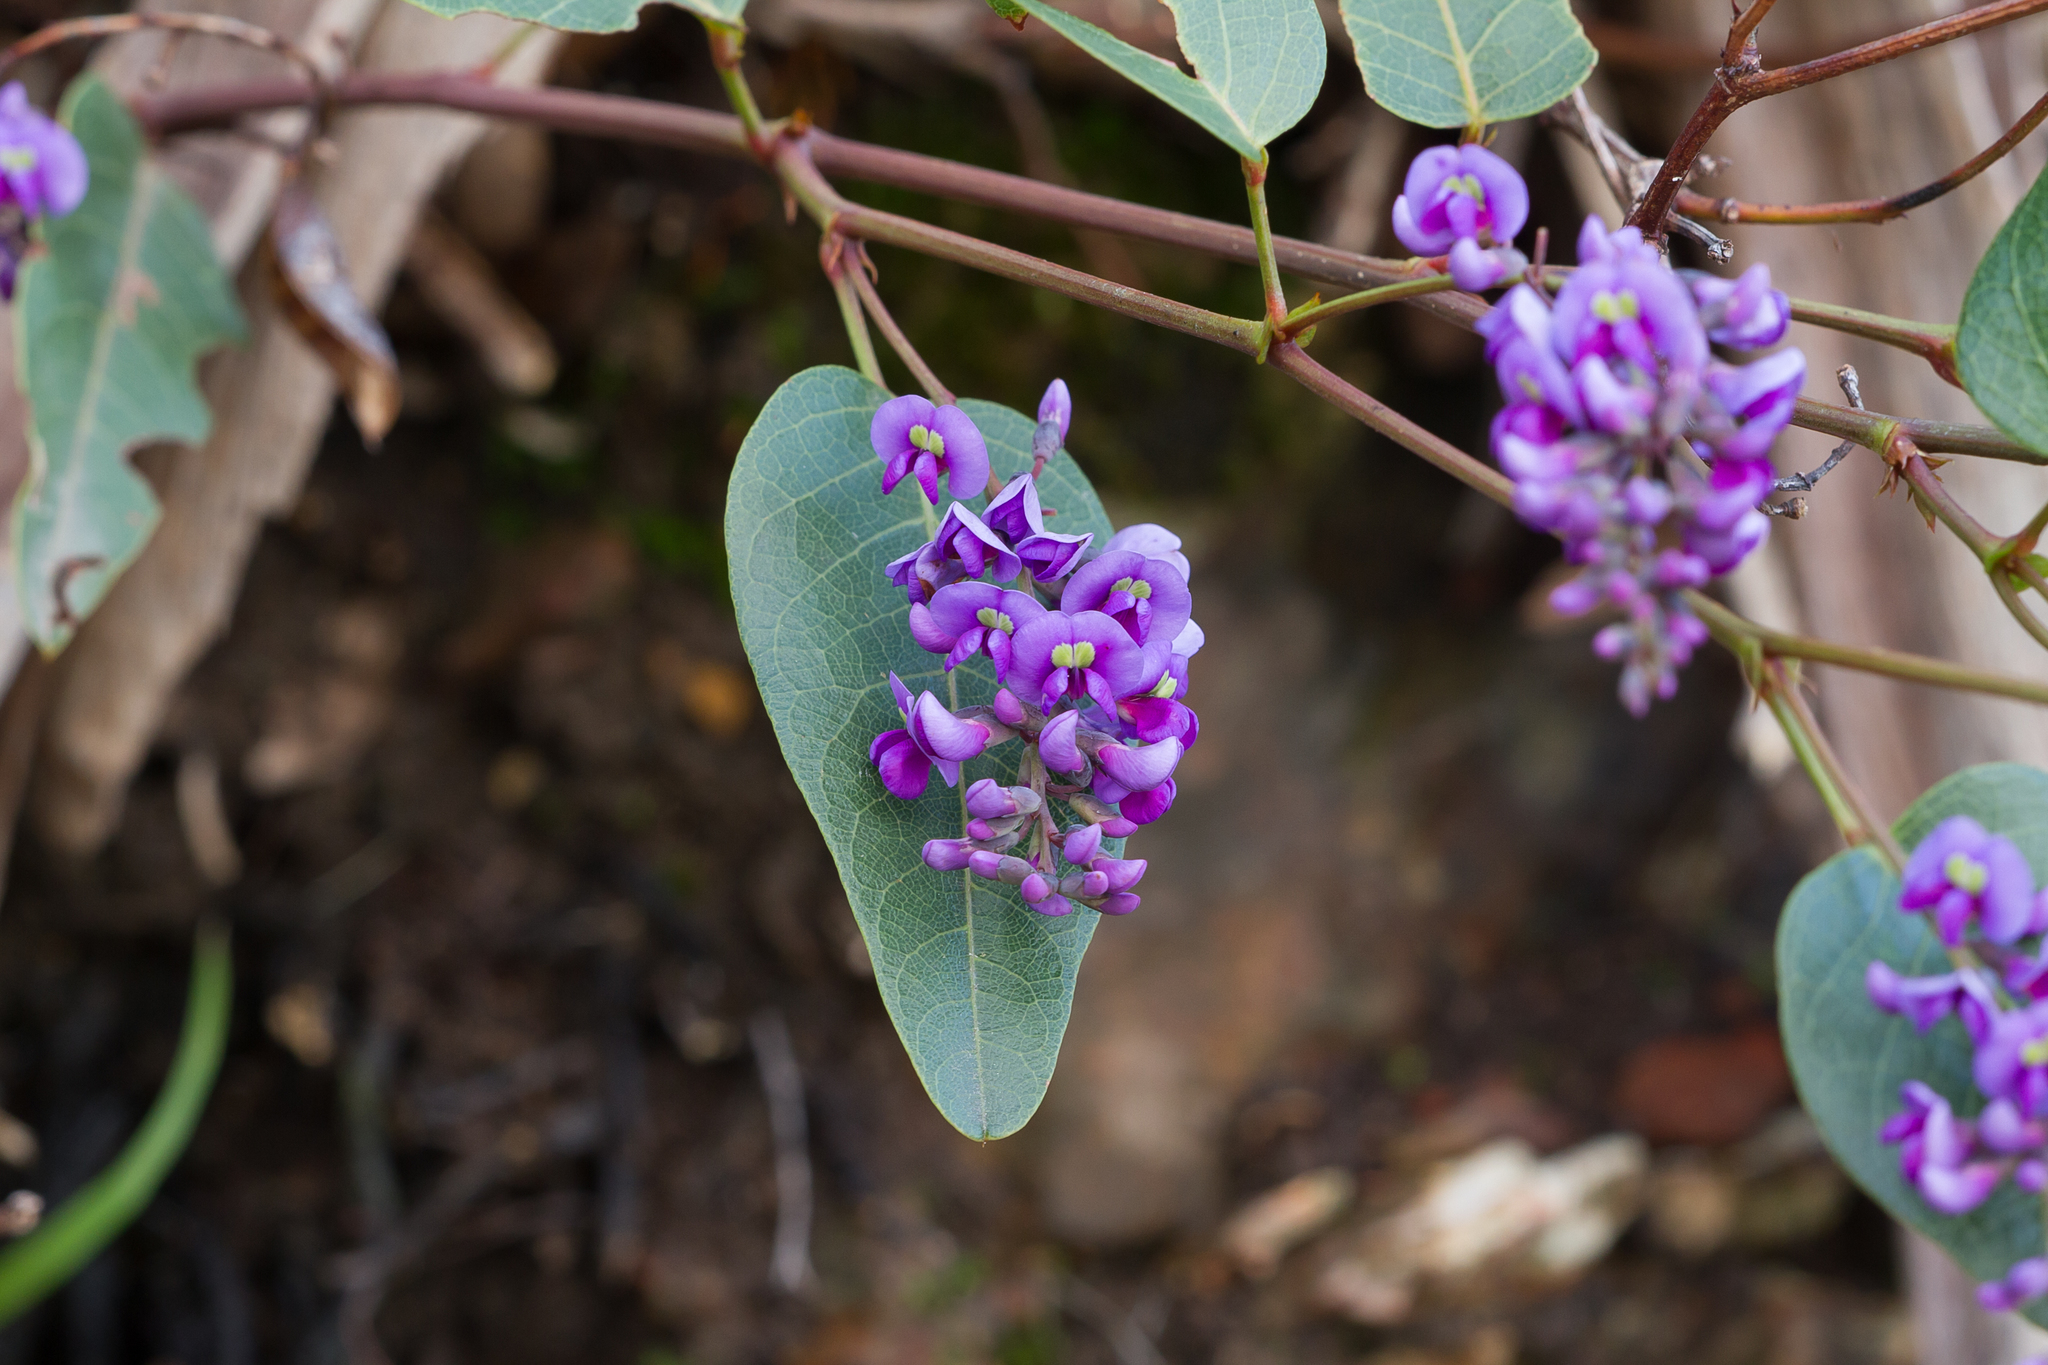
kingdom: Plantae
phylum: Tracheophyta
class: Magnoliopsida
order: Fabales
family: Fabaceae
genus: Hardenbergia
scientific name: Hardenbergia violacea
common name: Coral-pea
